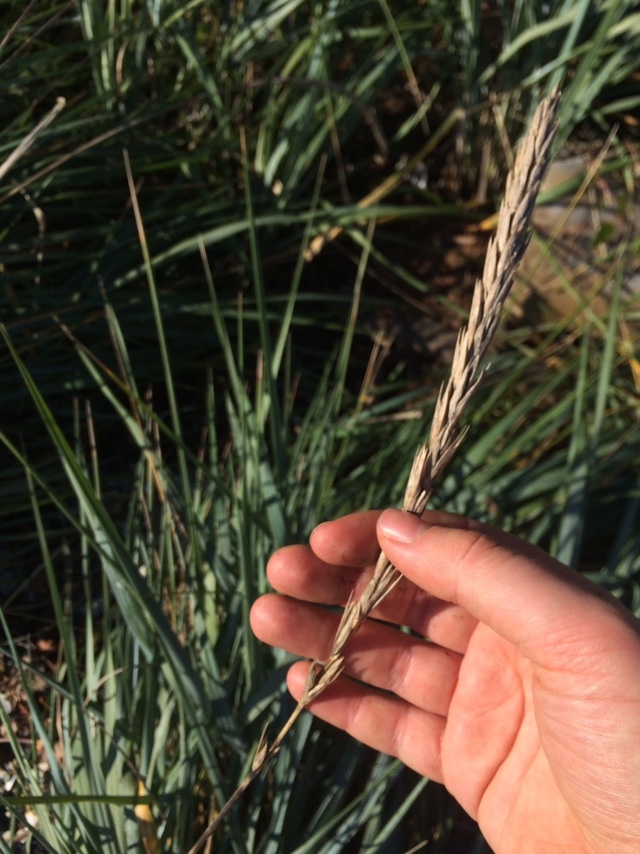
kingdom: Plantae
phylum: Tracheophyta
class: Liliopsida
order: Poales
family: Poaceae
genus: Leymus
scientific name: Leymus mollis
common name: American dune grass
